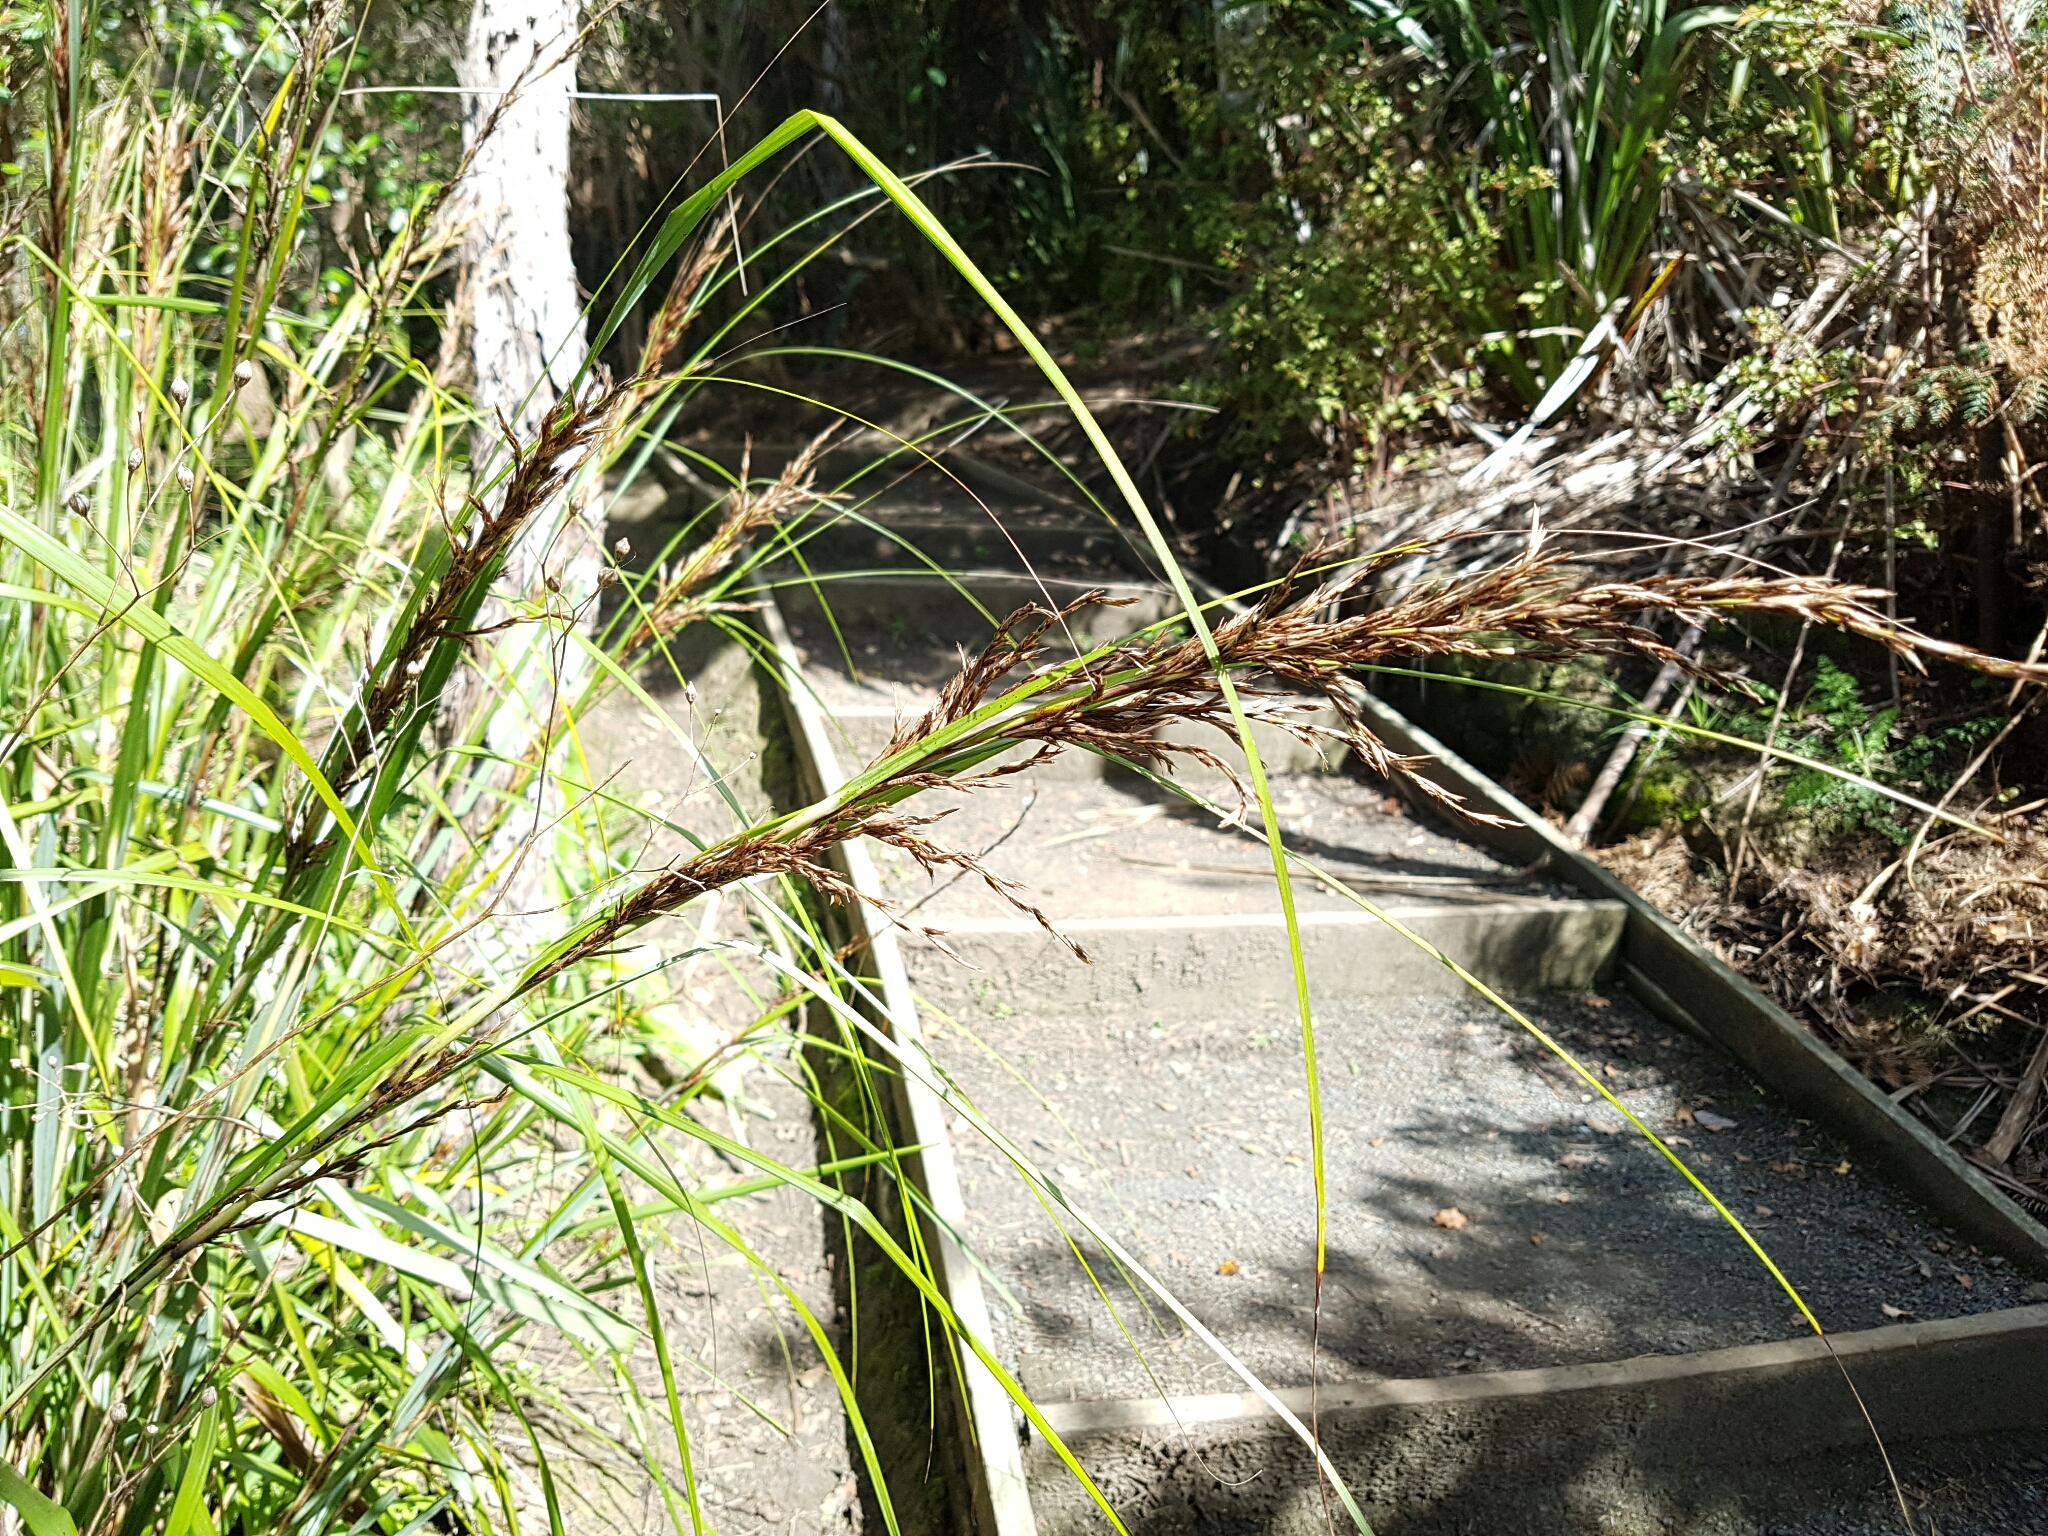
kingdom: Plantae
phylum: Tracheophyta
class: Liliopsida
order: Poales
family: Cyperaceae
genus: Gahnia
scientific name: Gahnia lacera
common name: Sawsedge
